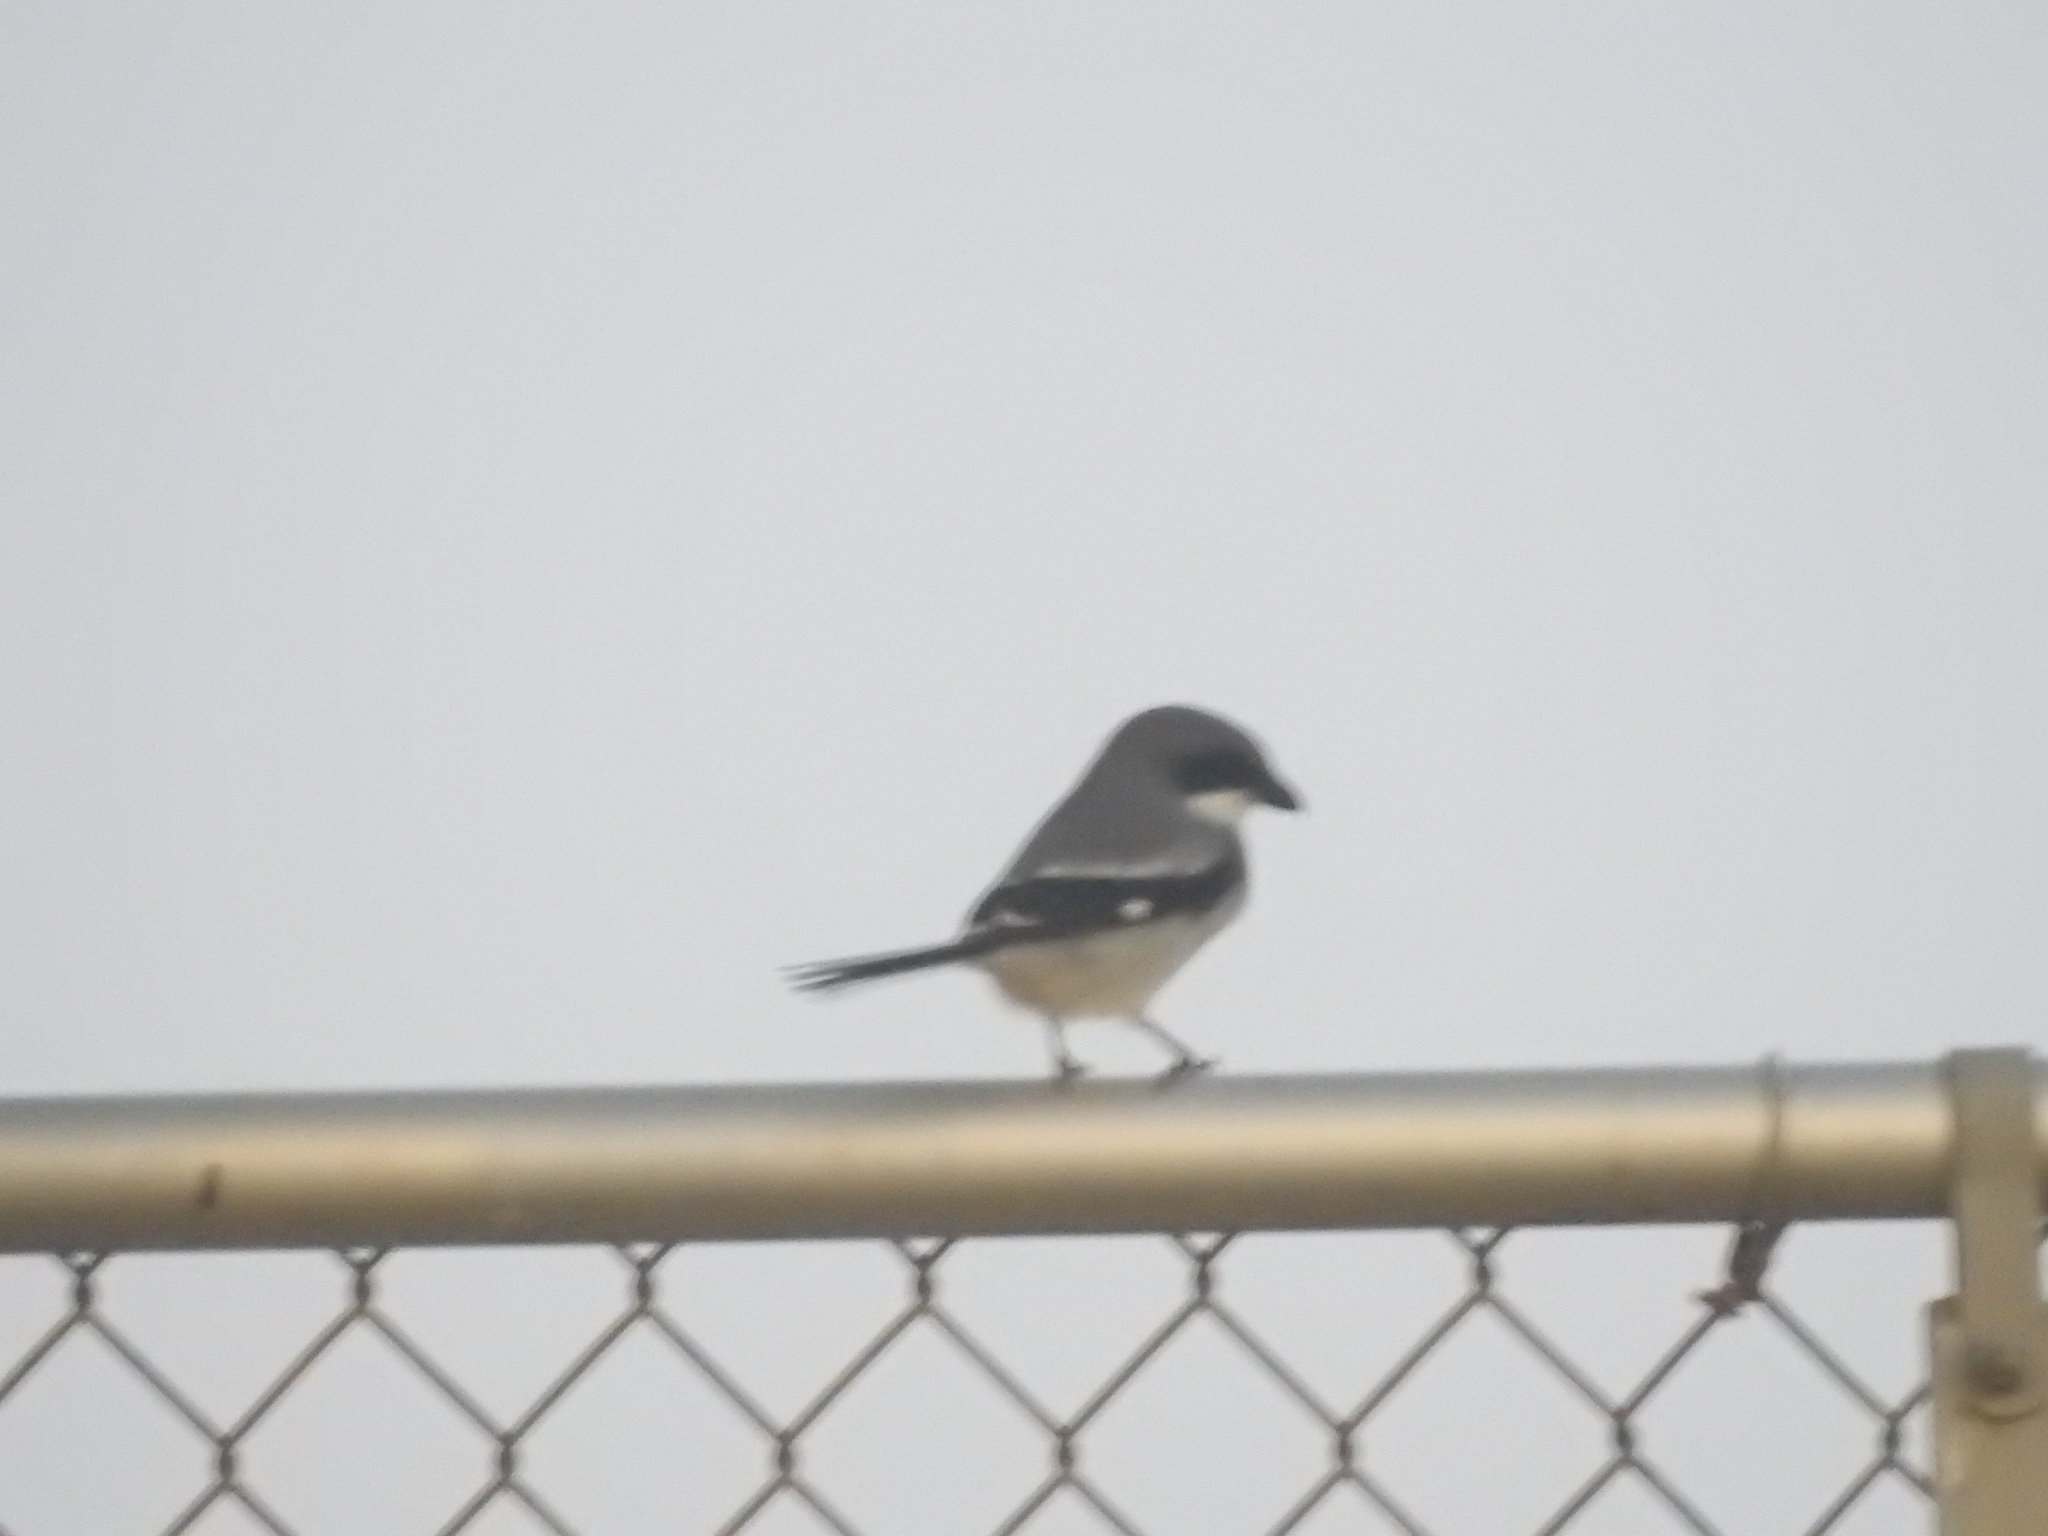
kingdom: Animalia
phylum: Chordata
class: Aves
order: Passeriformes
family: Laniidae
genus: Lanius
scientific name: Lanius ludovicianus
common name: Loggerhead shrike
